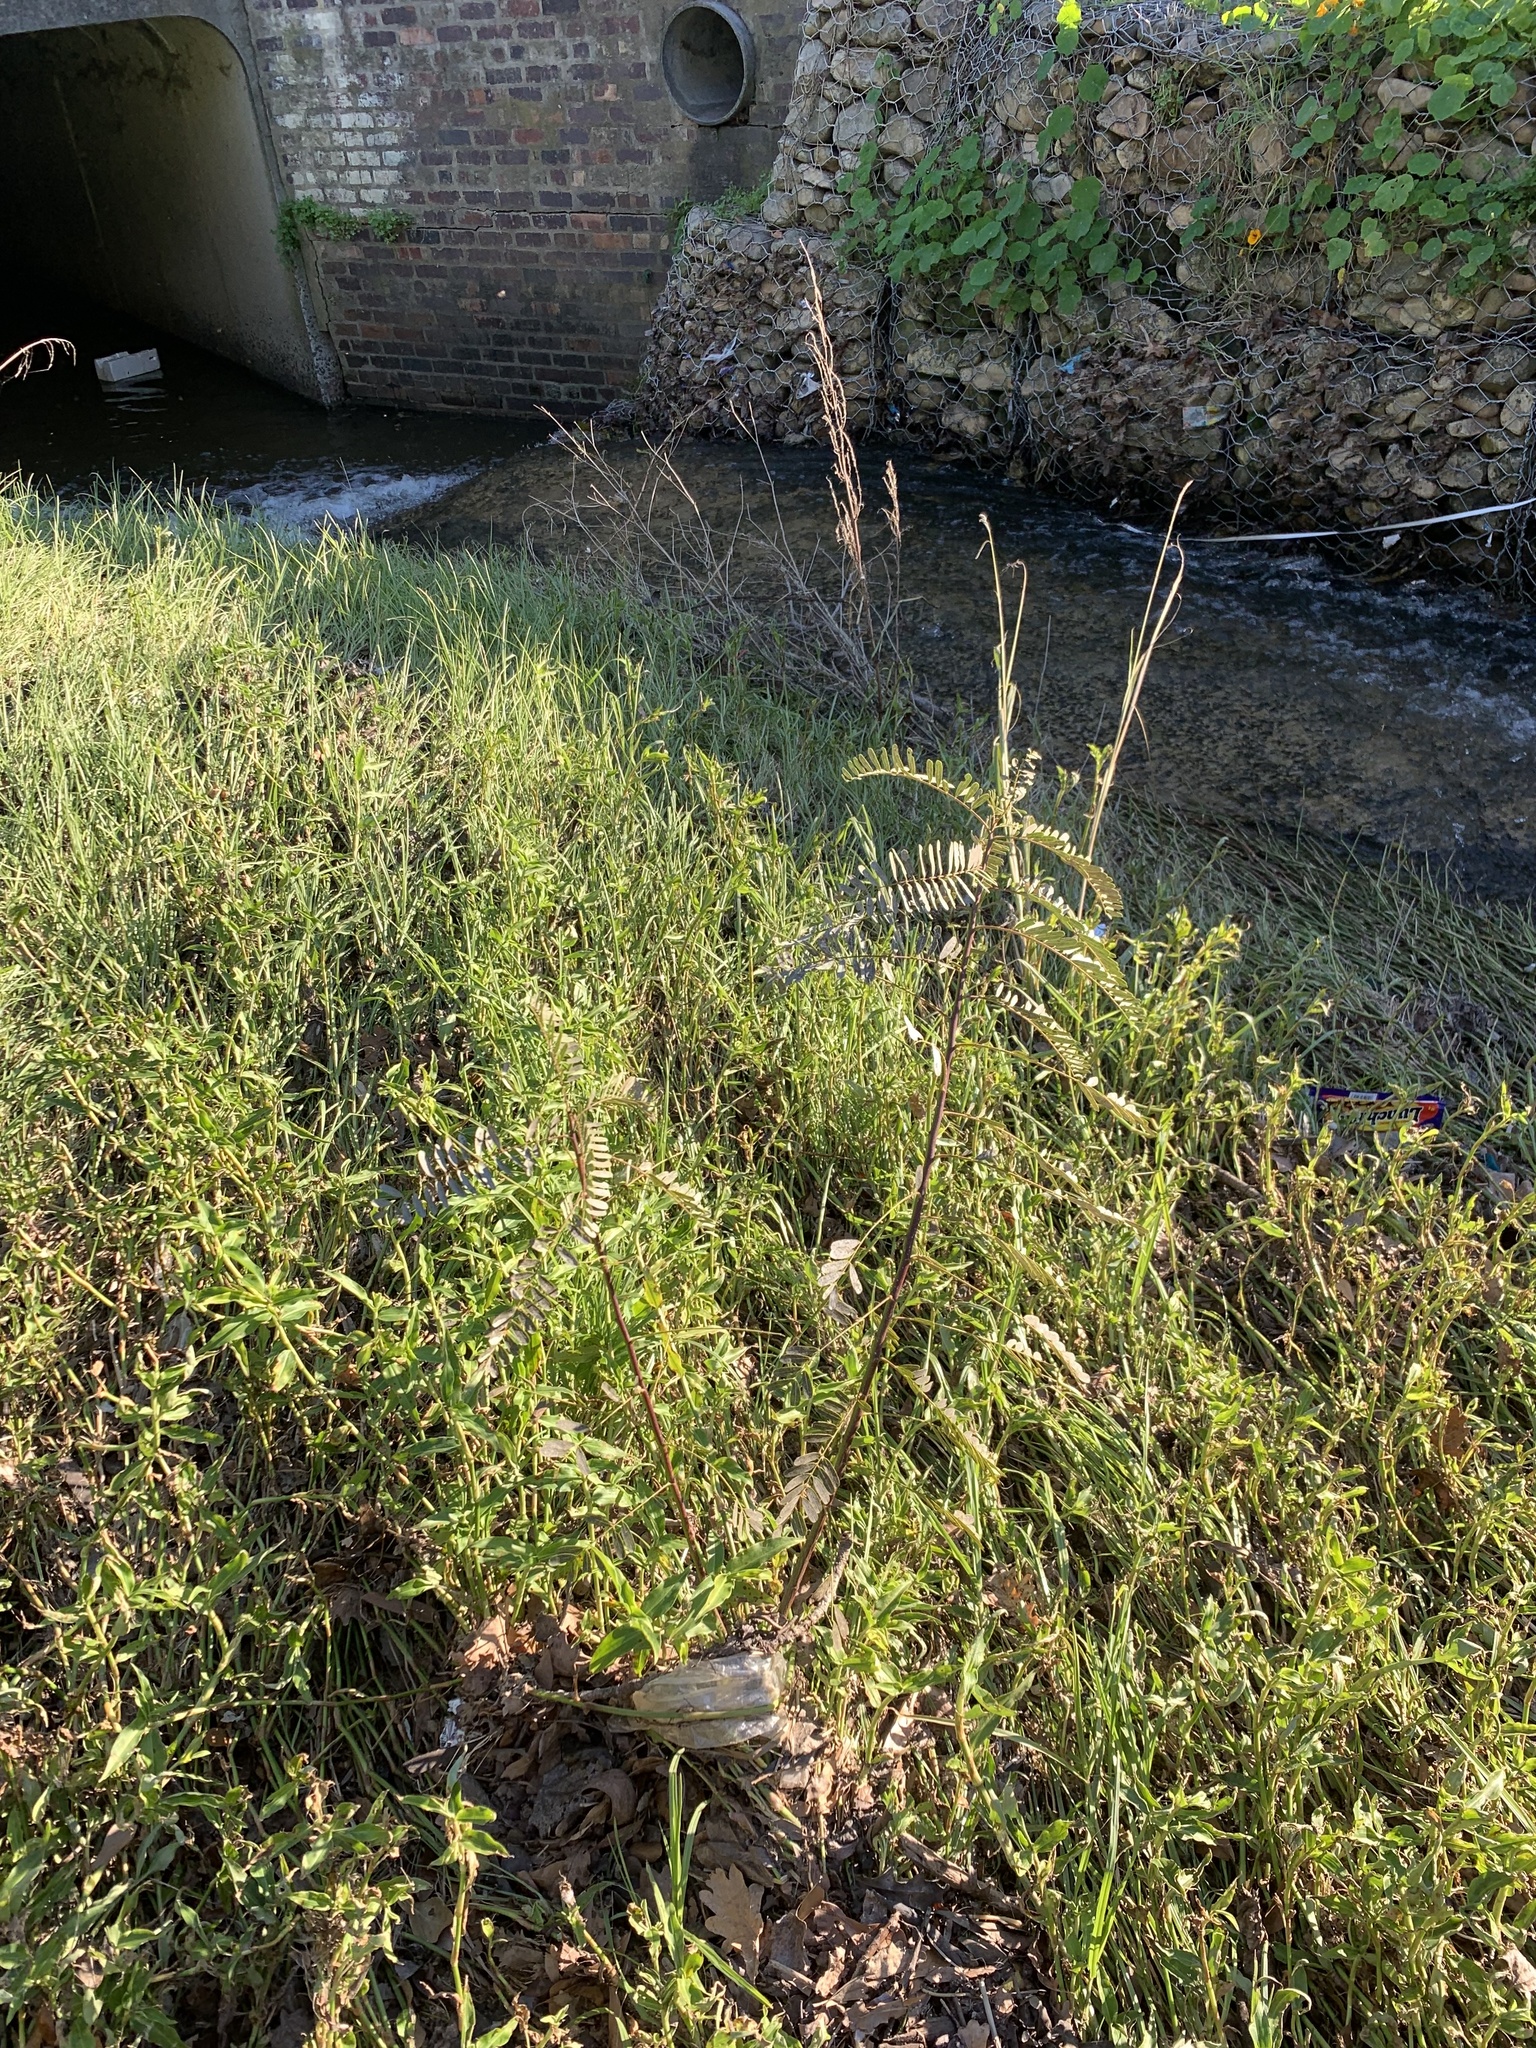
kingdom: Plantae
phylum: Tracheophyta
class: Magnoliopsida
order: Fabales
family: Fabaceae
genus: Sesbania
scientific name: Sesbania punicea
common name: Rattlebox
